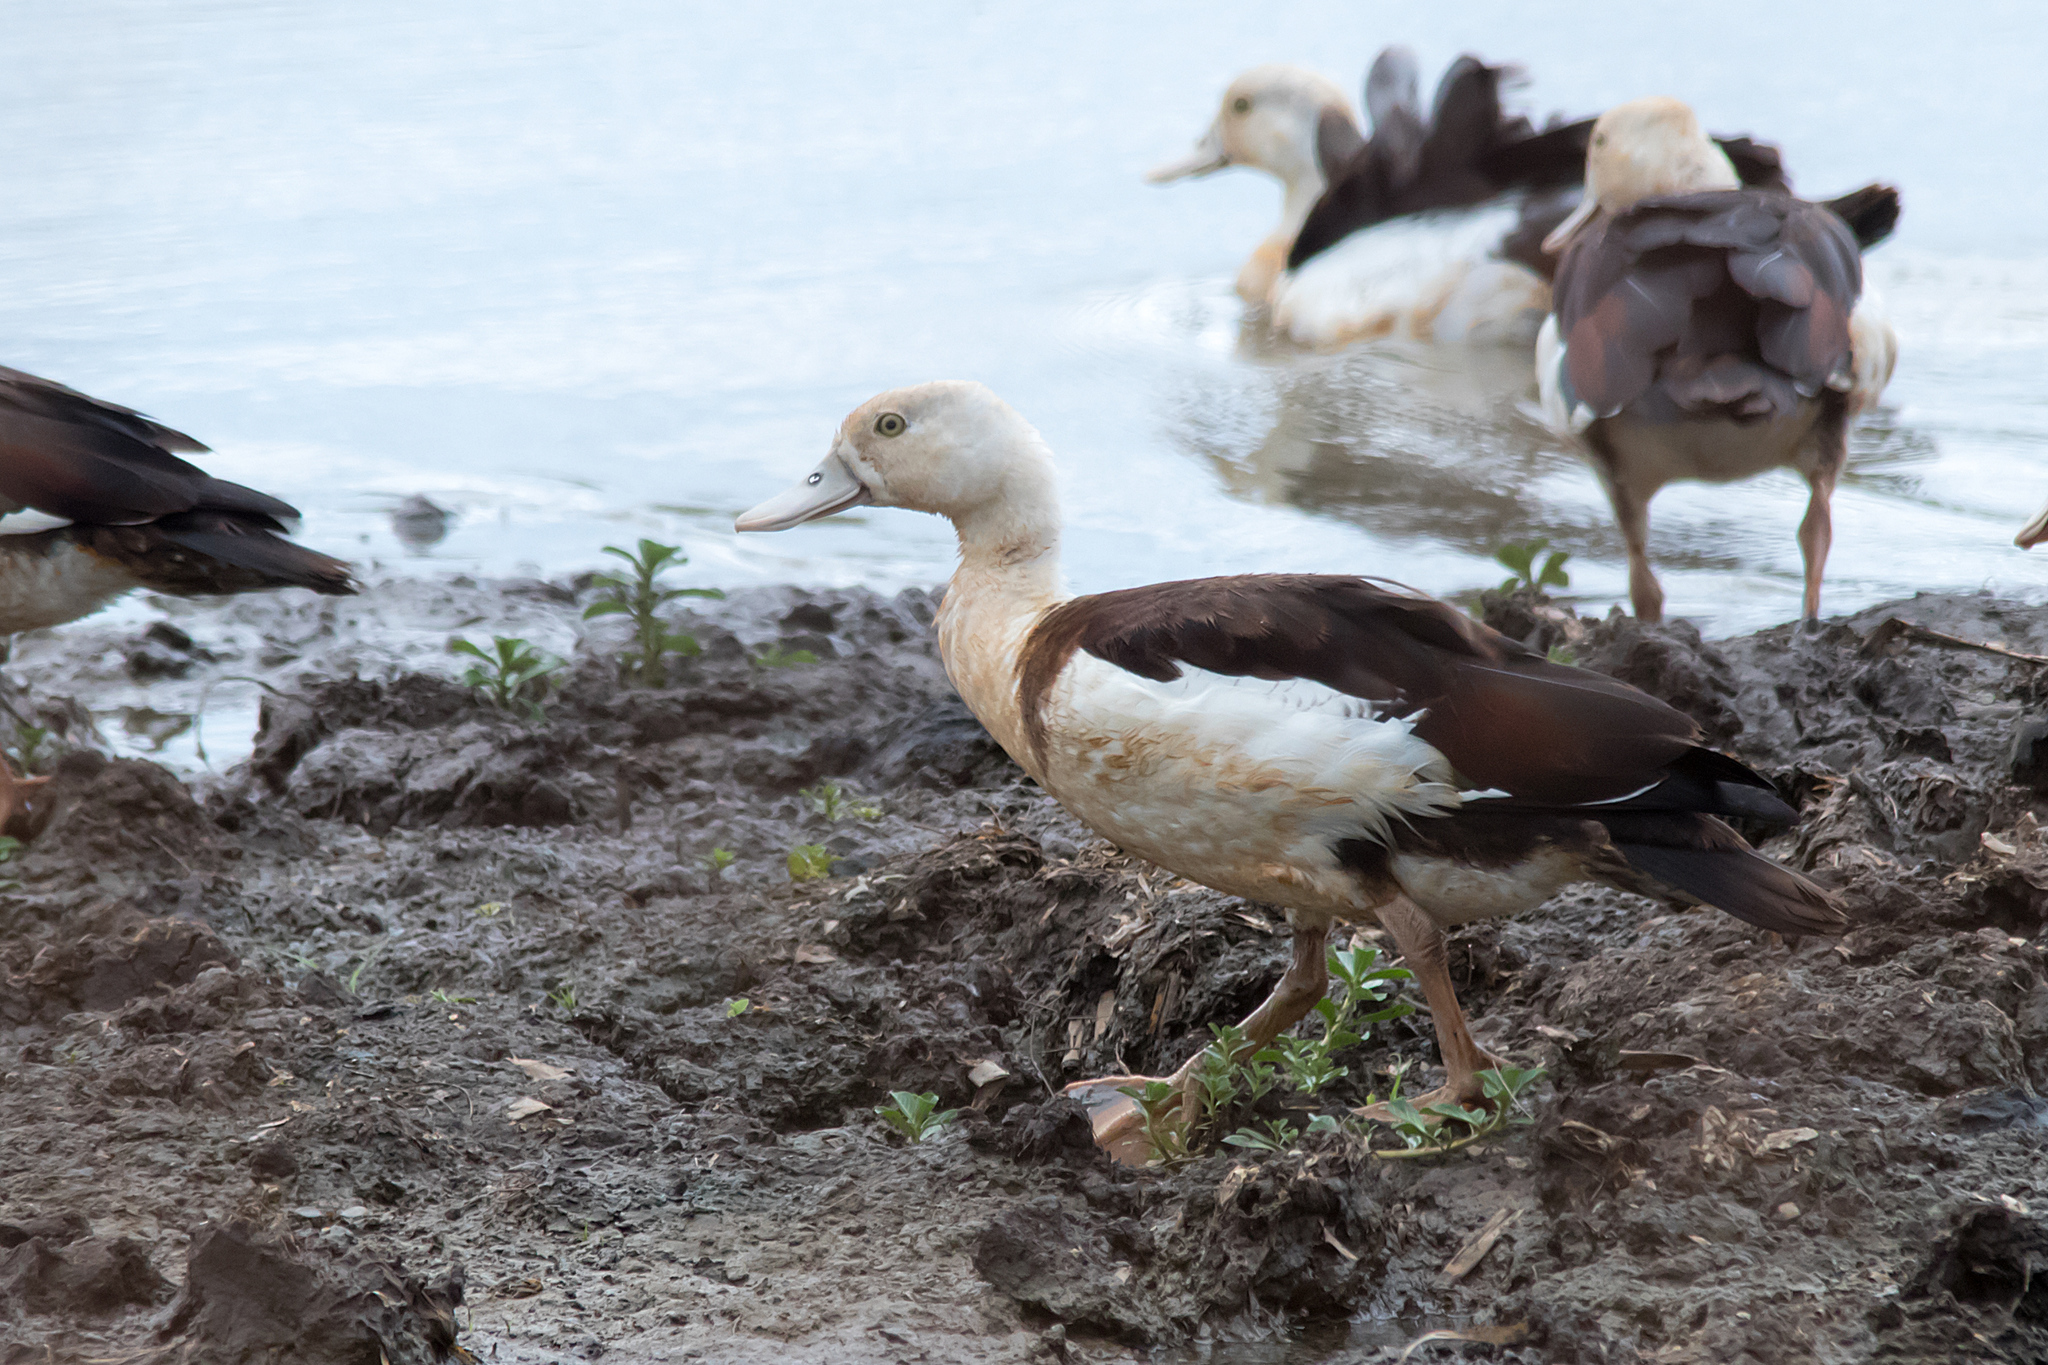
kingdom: Animalia
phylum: Chordata
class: Aves
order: Anseriformes
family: Anatidae
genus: Radjah
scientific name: Radjah radjah
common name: Radjah shelduck
